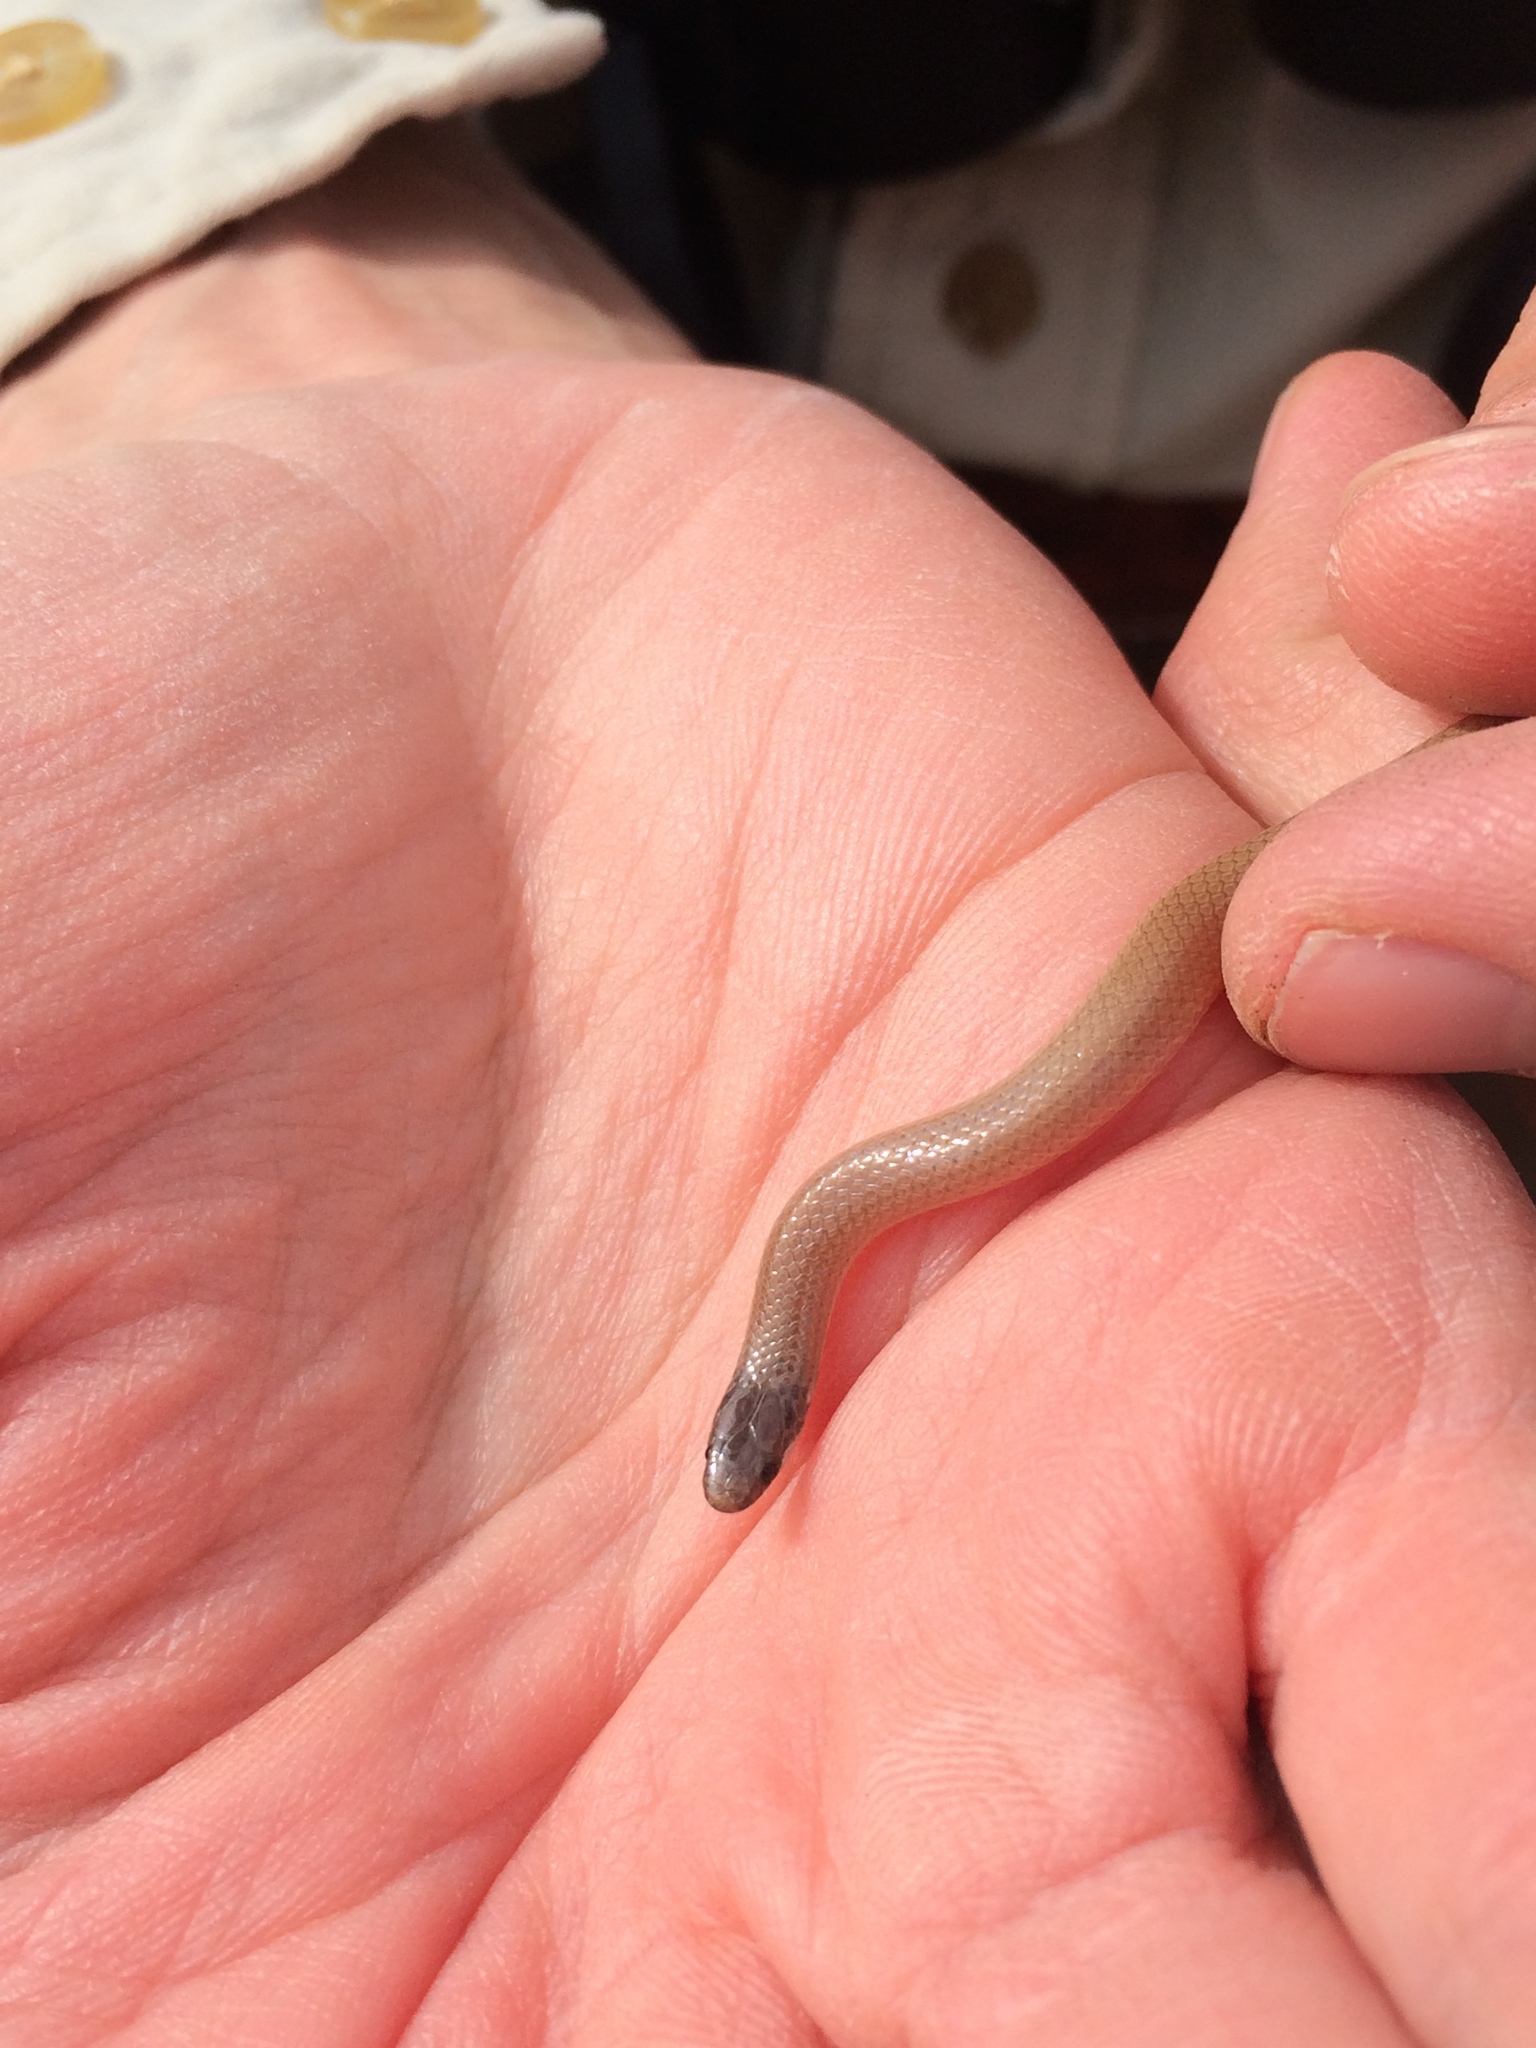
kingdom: Animalia
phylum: Chordata
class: Squamata
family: Colubridae
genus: Tantilla
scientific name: Tantilla gracilis
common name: Flathead snake
